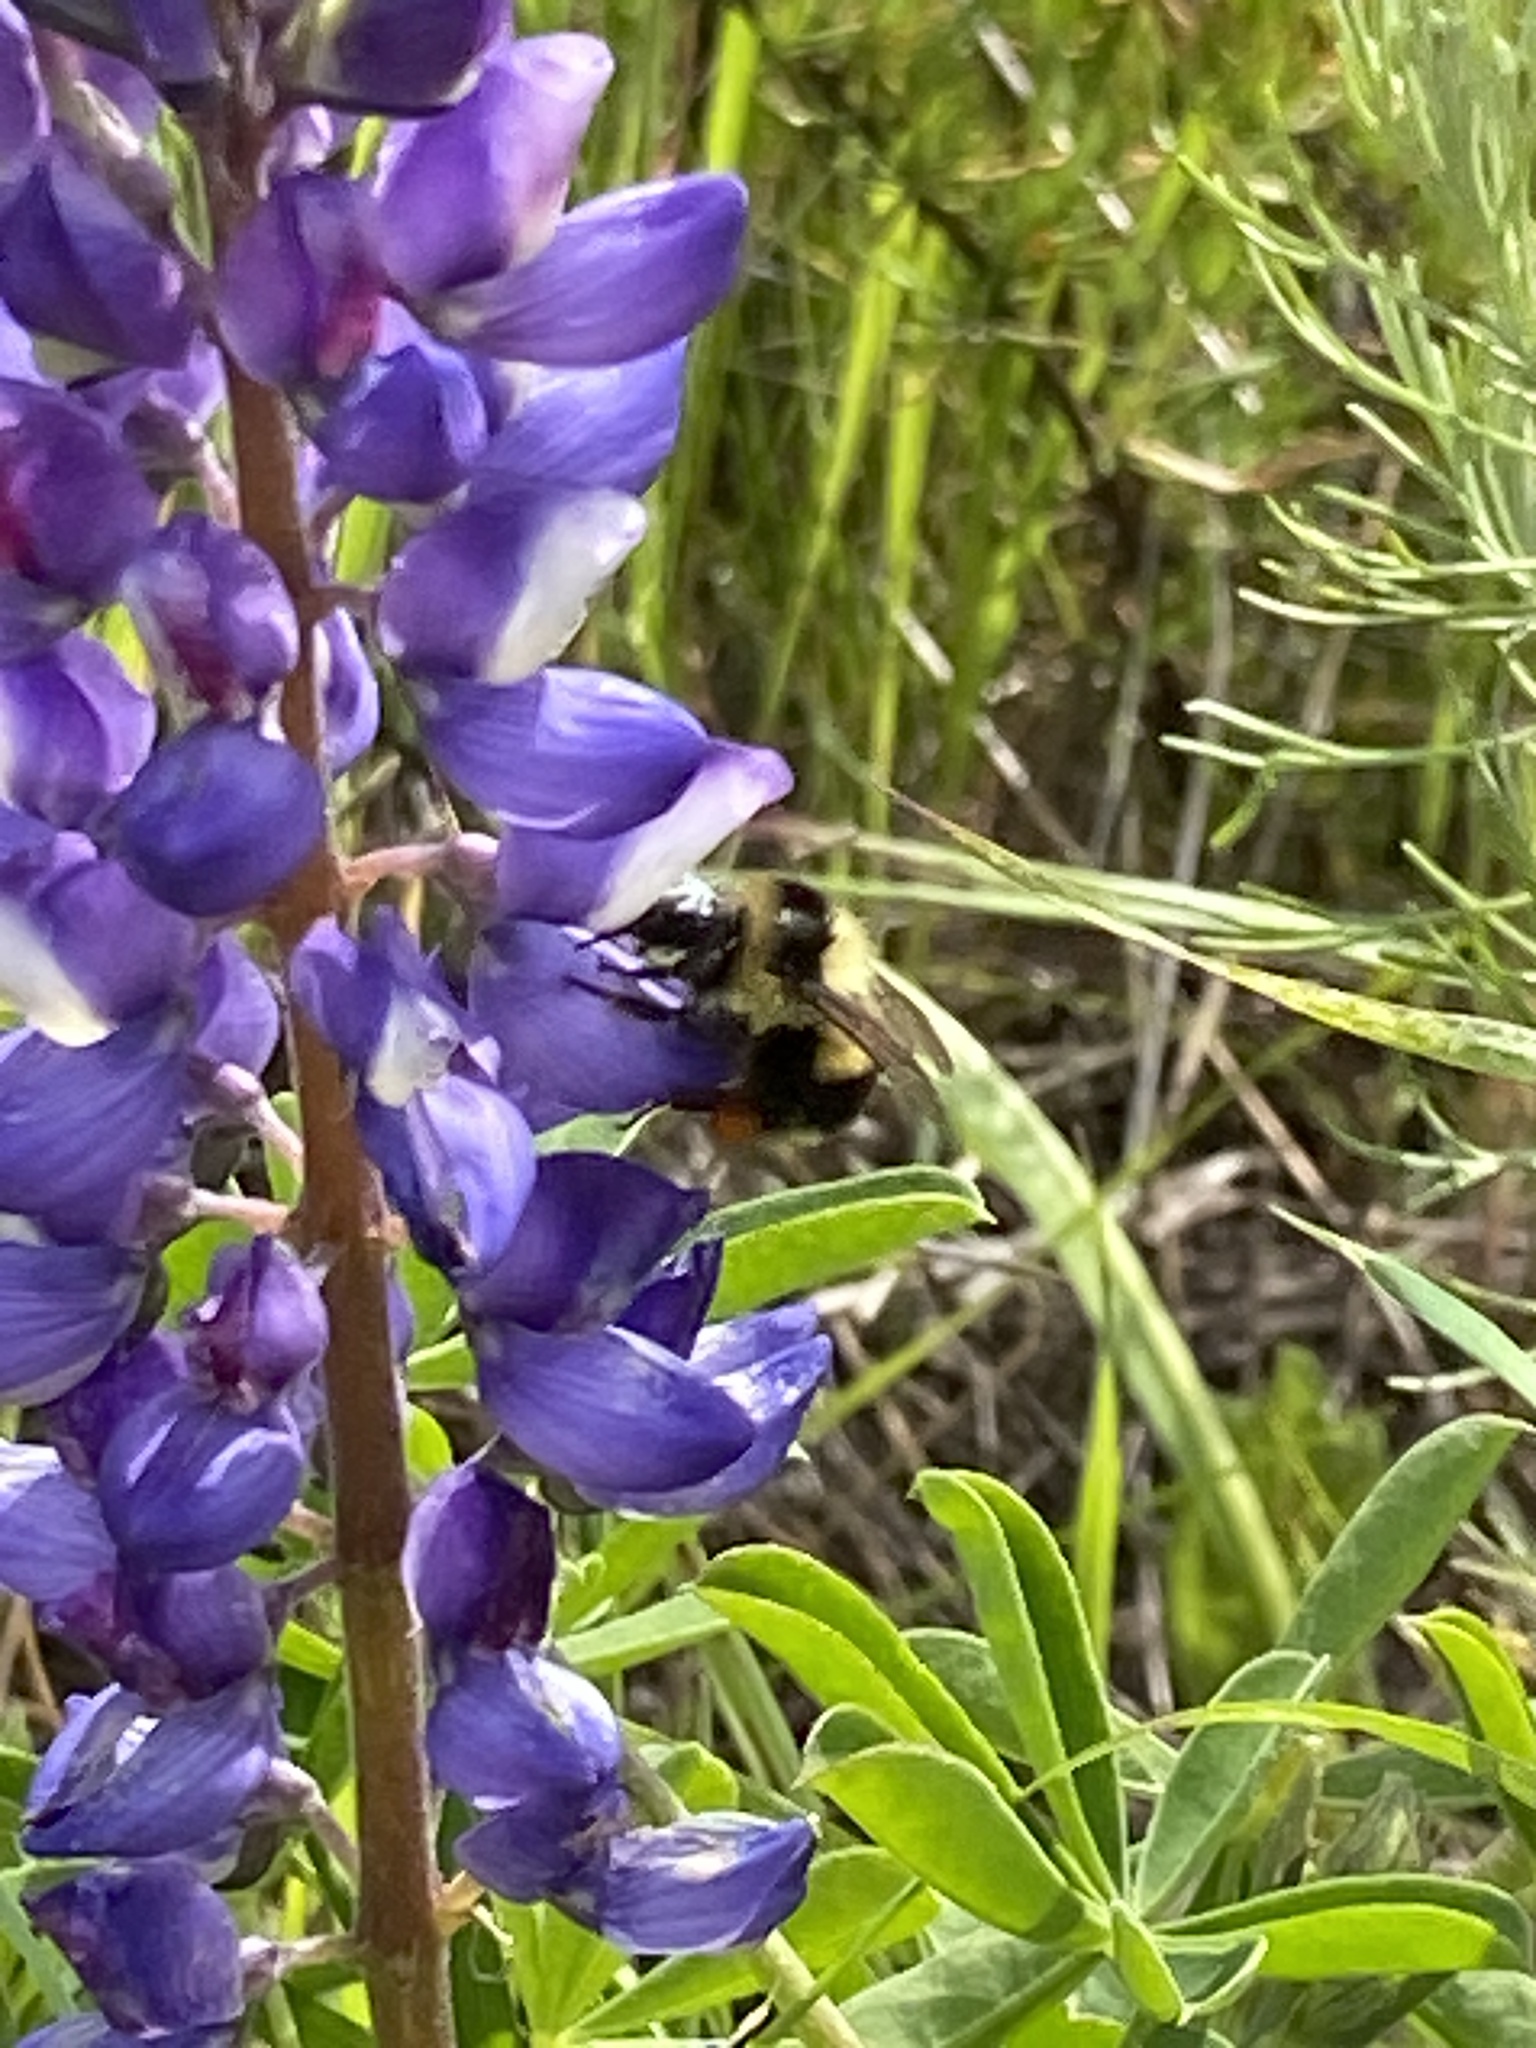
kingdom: Animalia
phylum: Arthropoda
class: Insecta
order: Hymenoptera
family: Apidae
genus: Bombus
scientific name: Bombus melanopygus
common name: Black tail bumble bee
